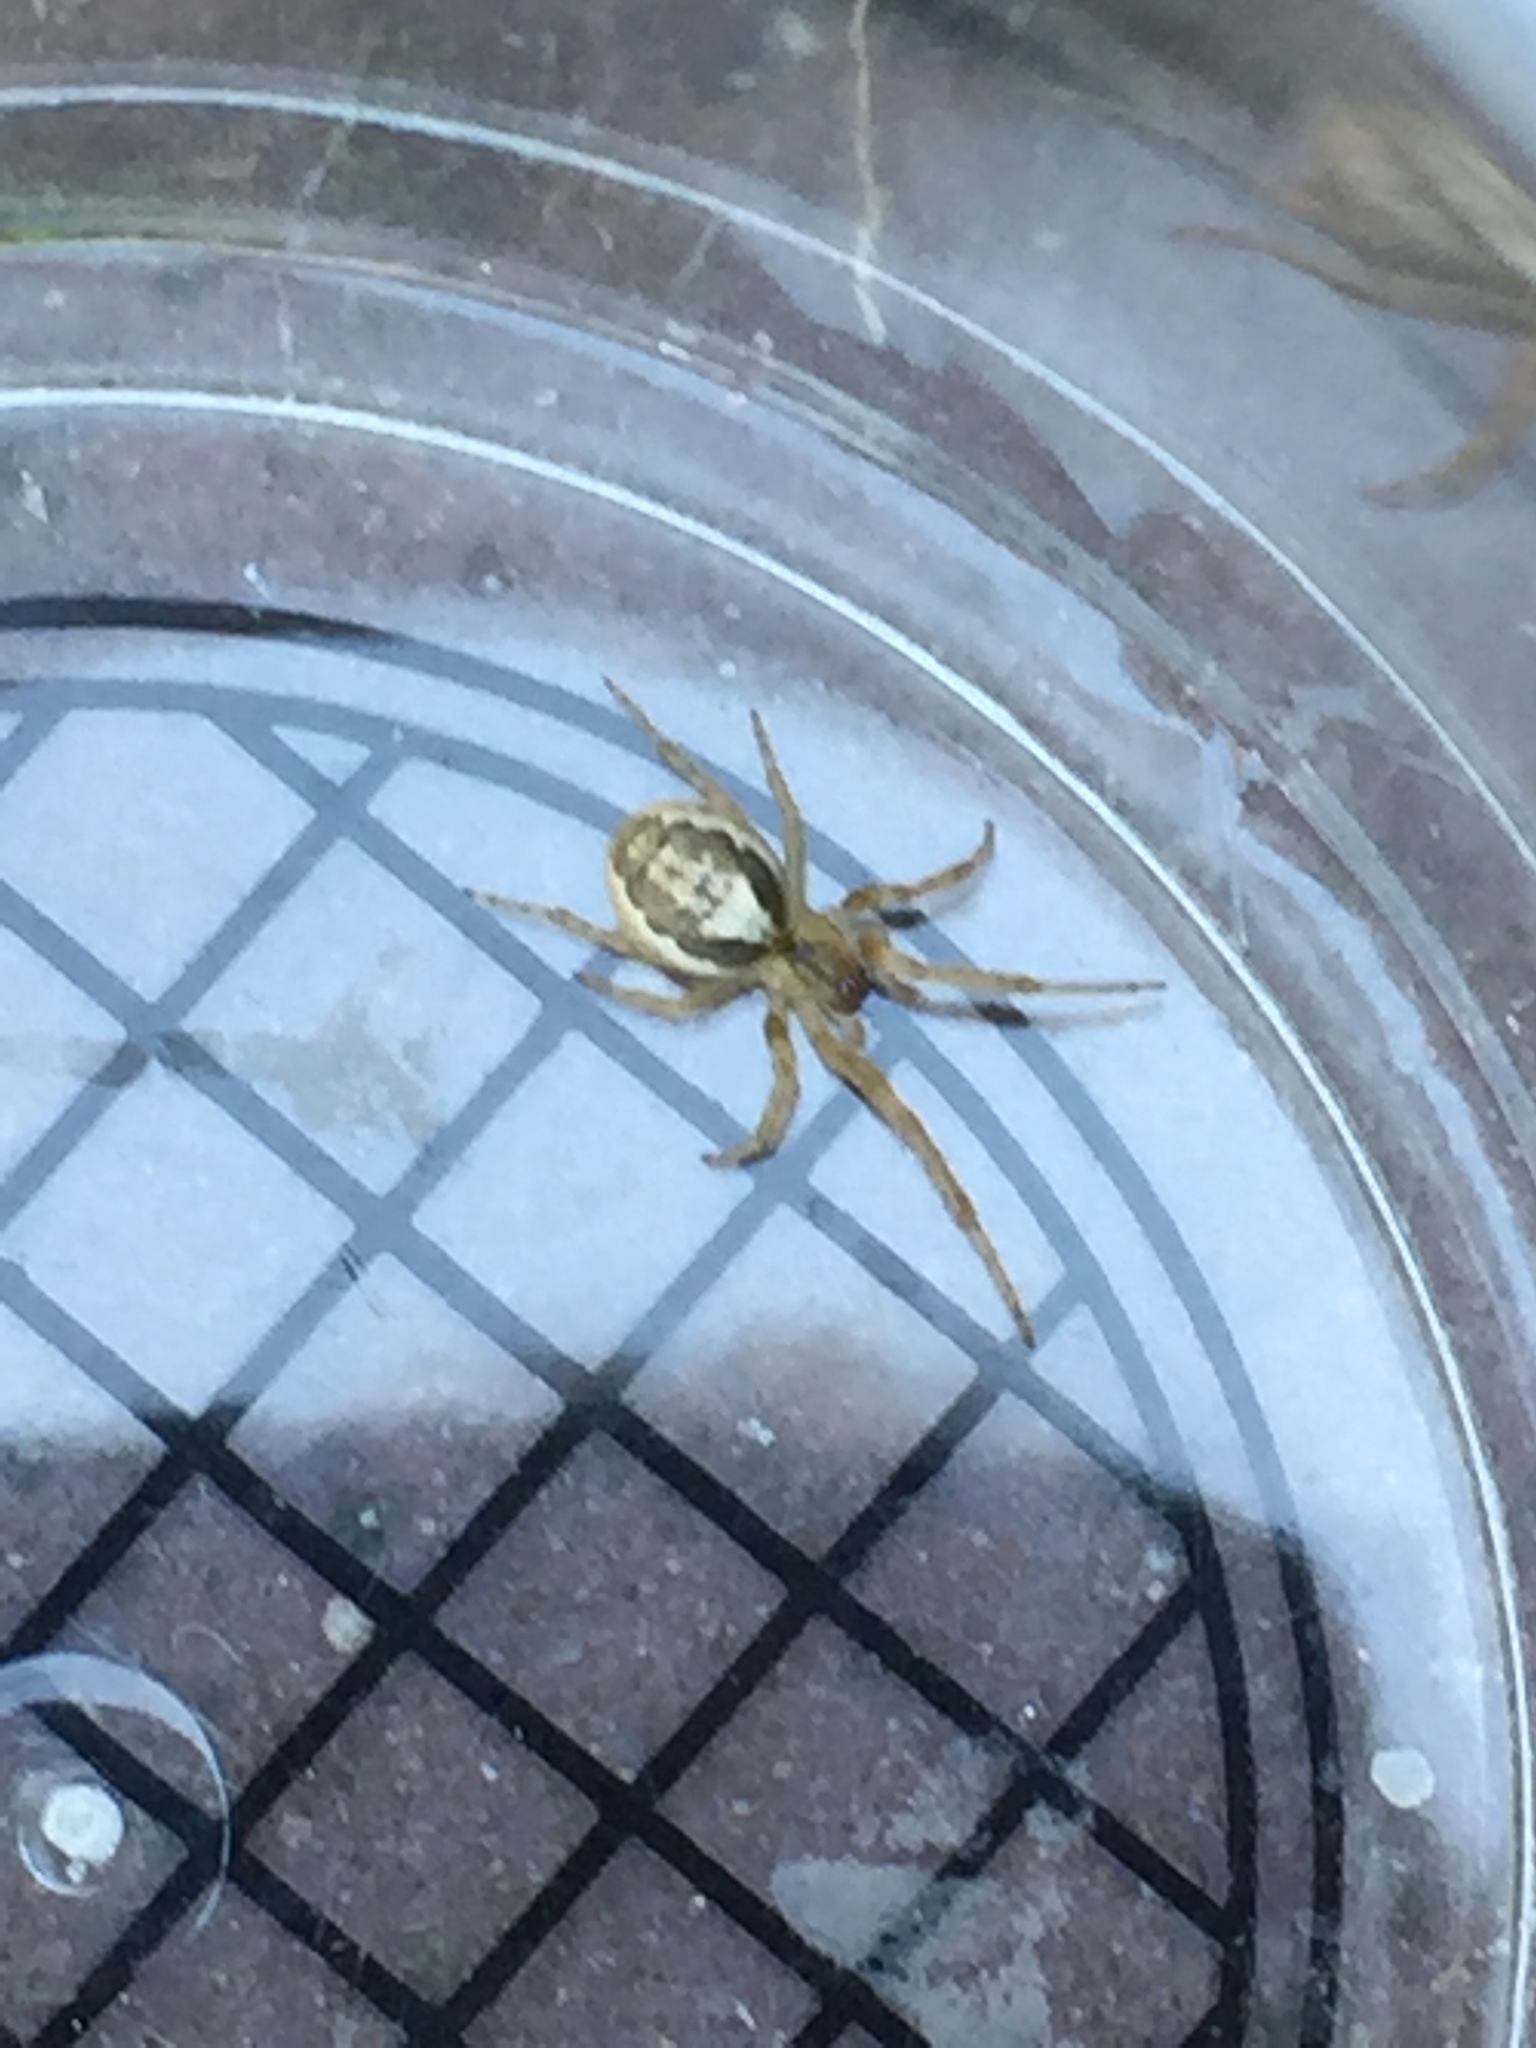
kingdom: Animalia
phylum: Arthropoda
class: Arachnida
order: Araneae
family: Araneidae
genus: Zygiella
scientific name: Zygiella x-notata
